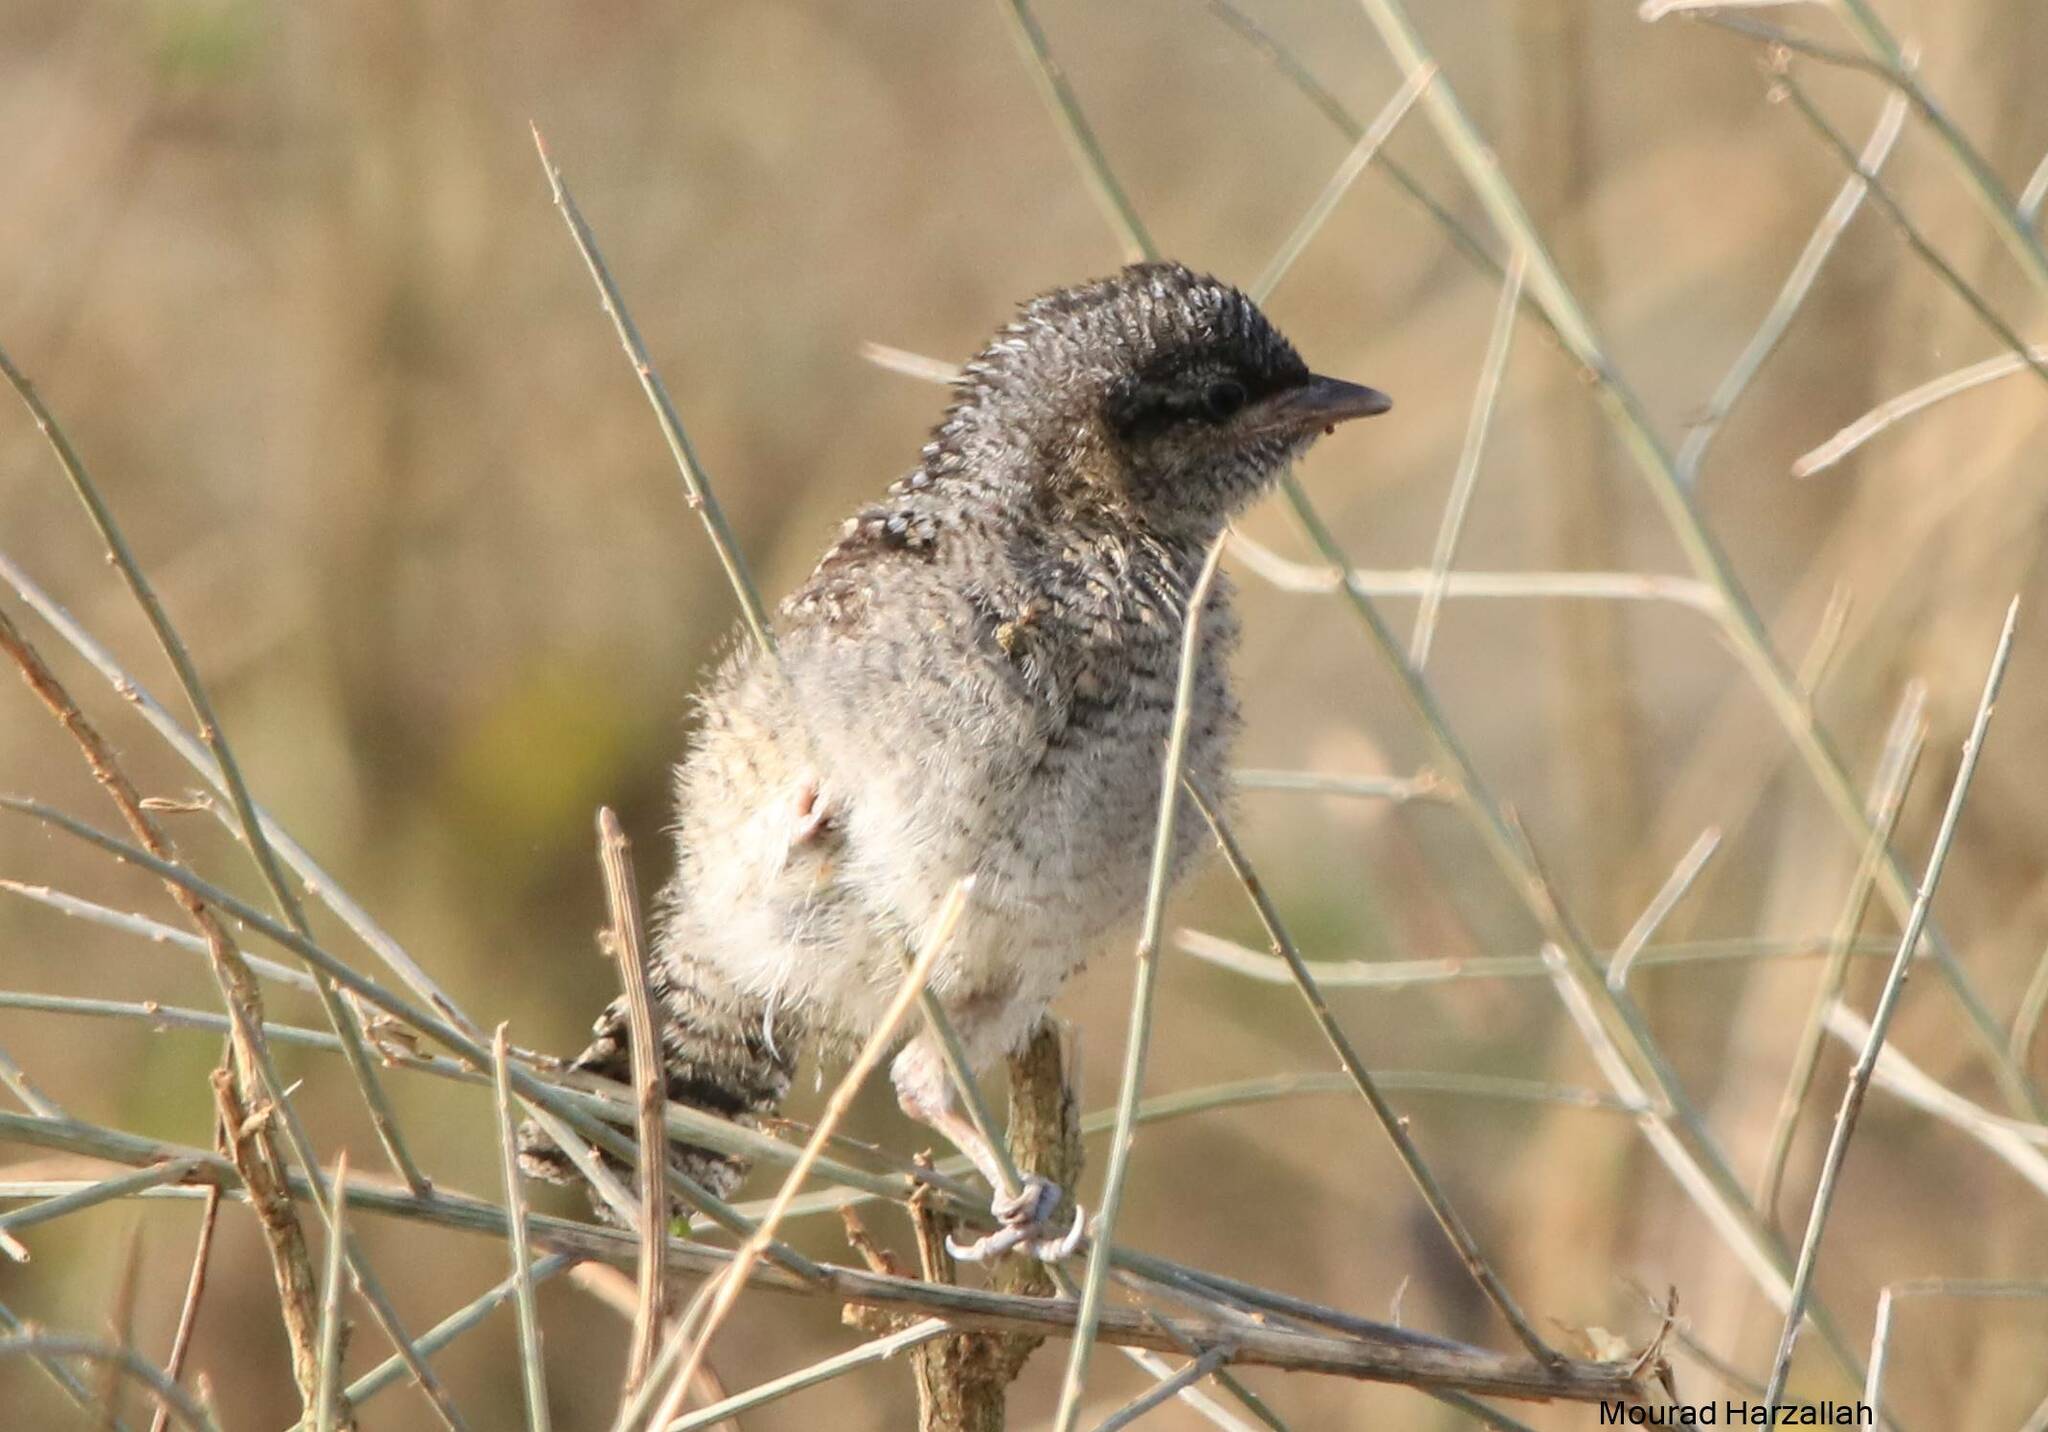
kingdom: Animalia
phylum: Chordata
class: Aves
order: Piciformes
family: Picidae
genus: Jynx
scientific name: Jynx torquilla
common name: Eurasian wryneck
